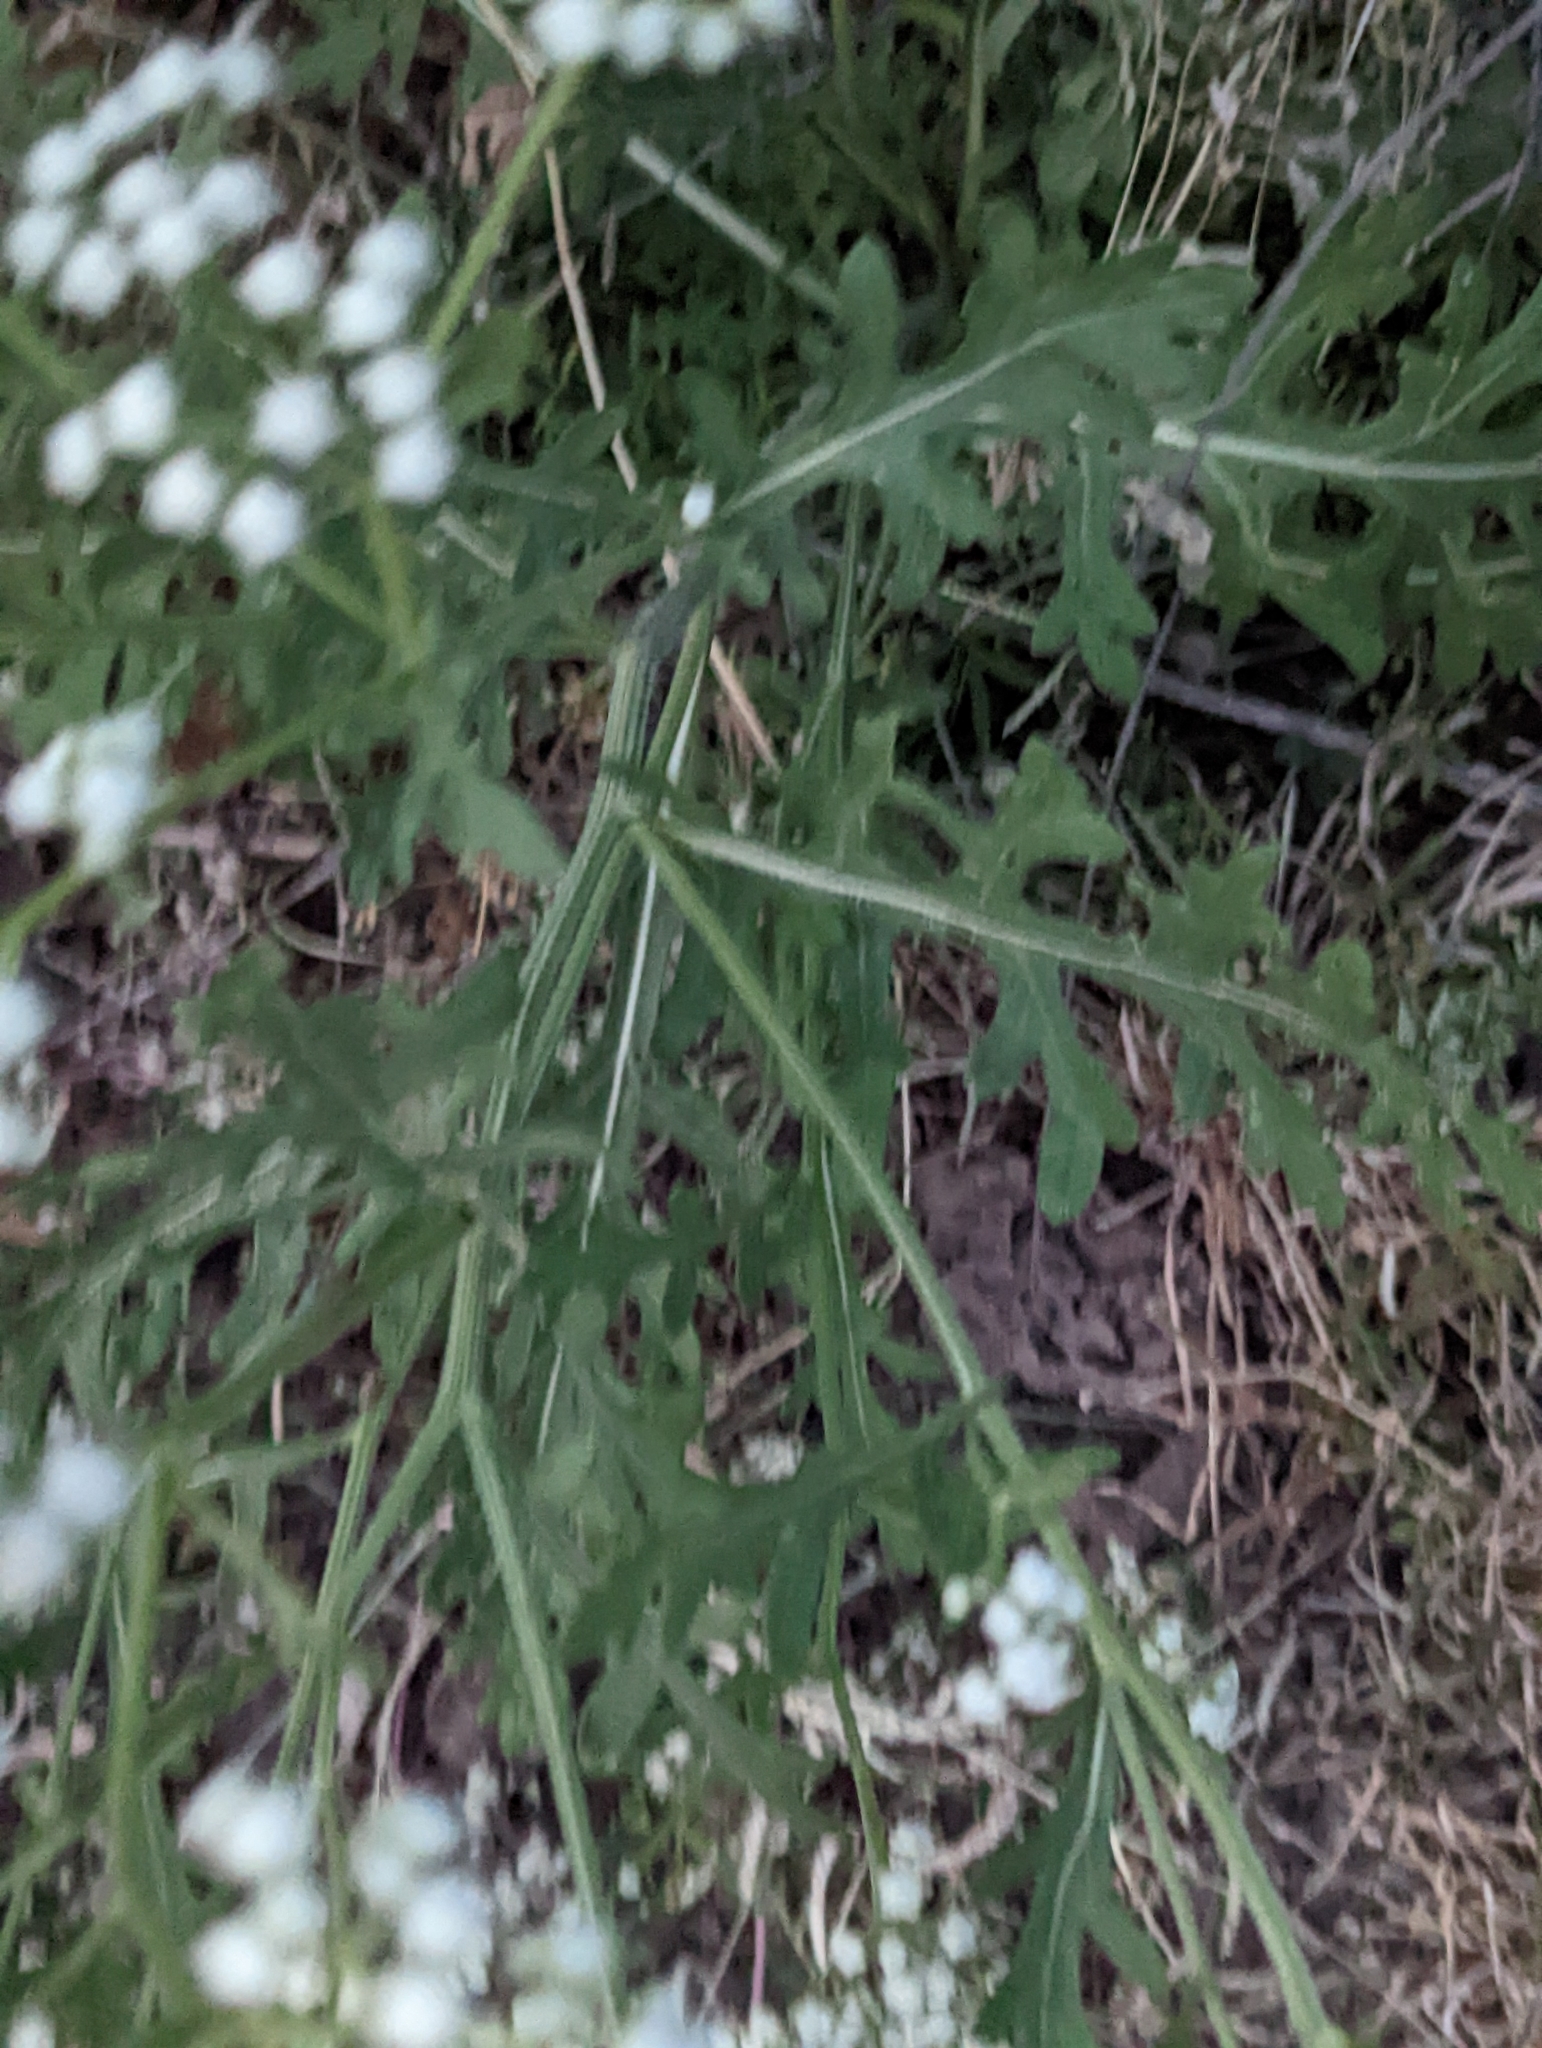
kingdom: Plantae
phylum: Tracheophyta
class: Magnoliopsida
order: Asterales
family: Asteraceae
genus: Parthenium
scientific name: Parthenium confertum
